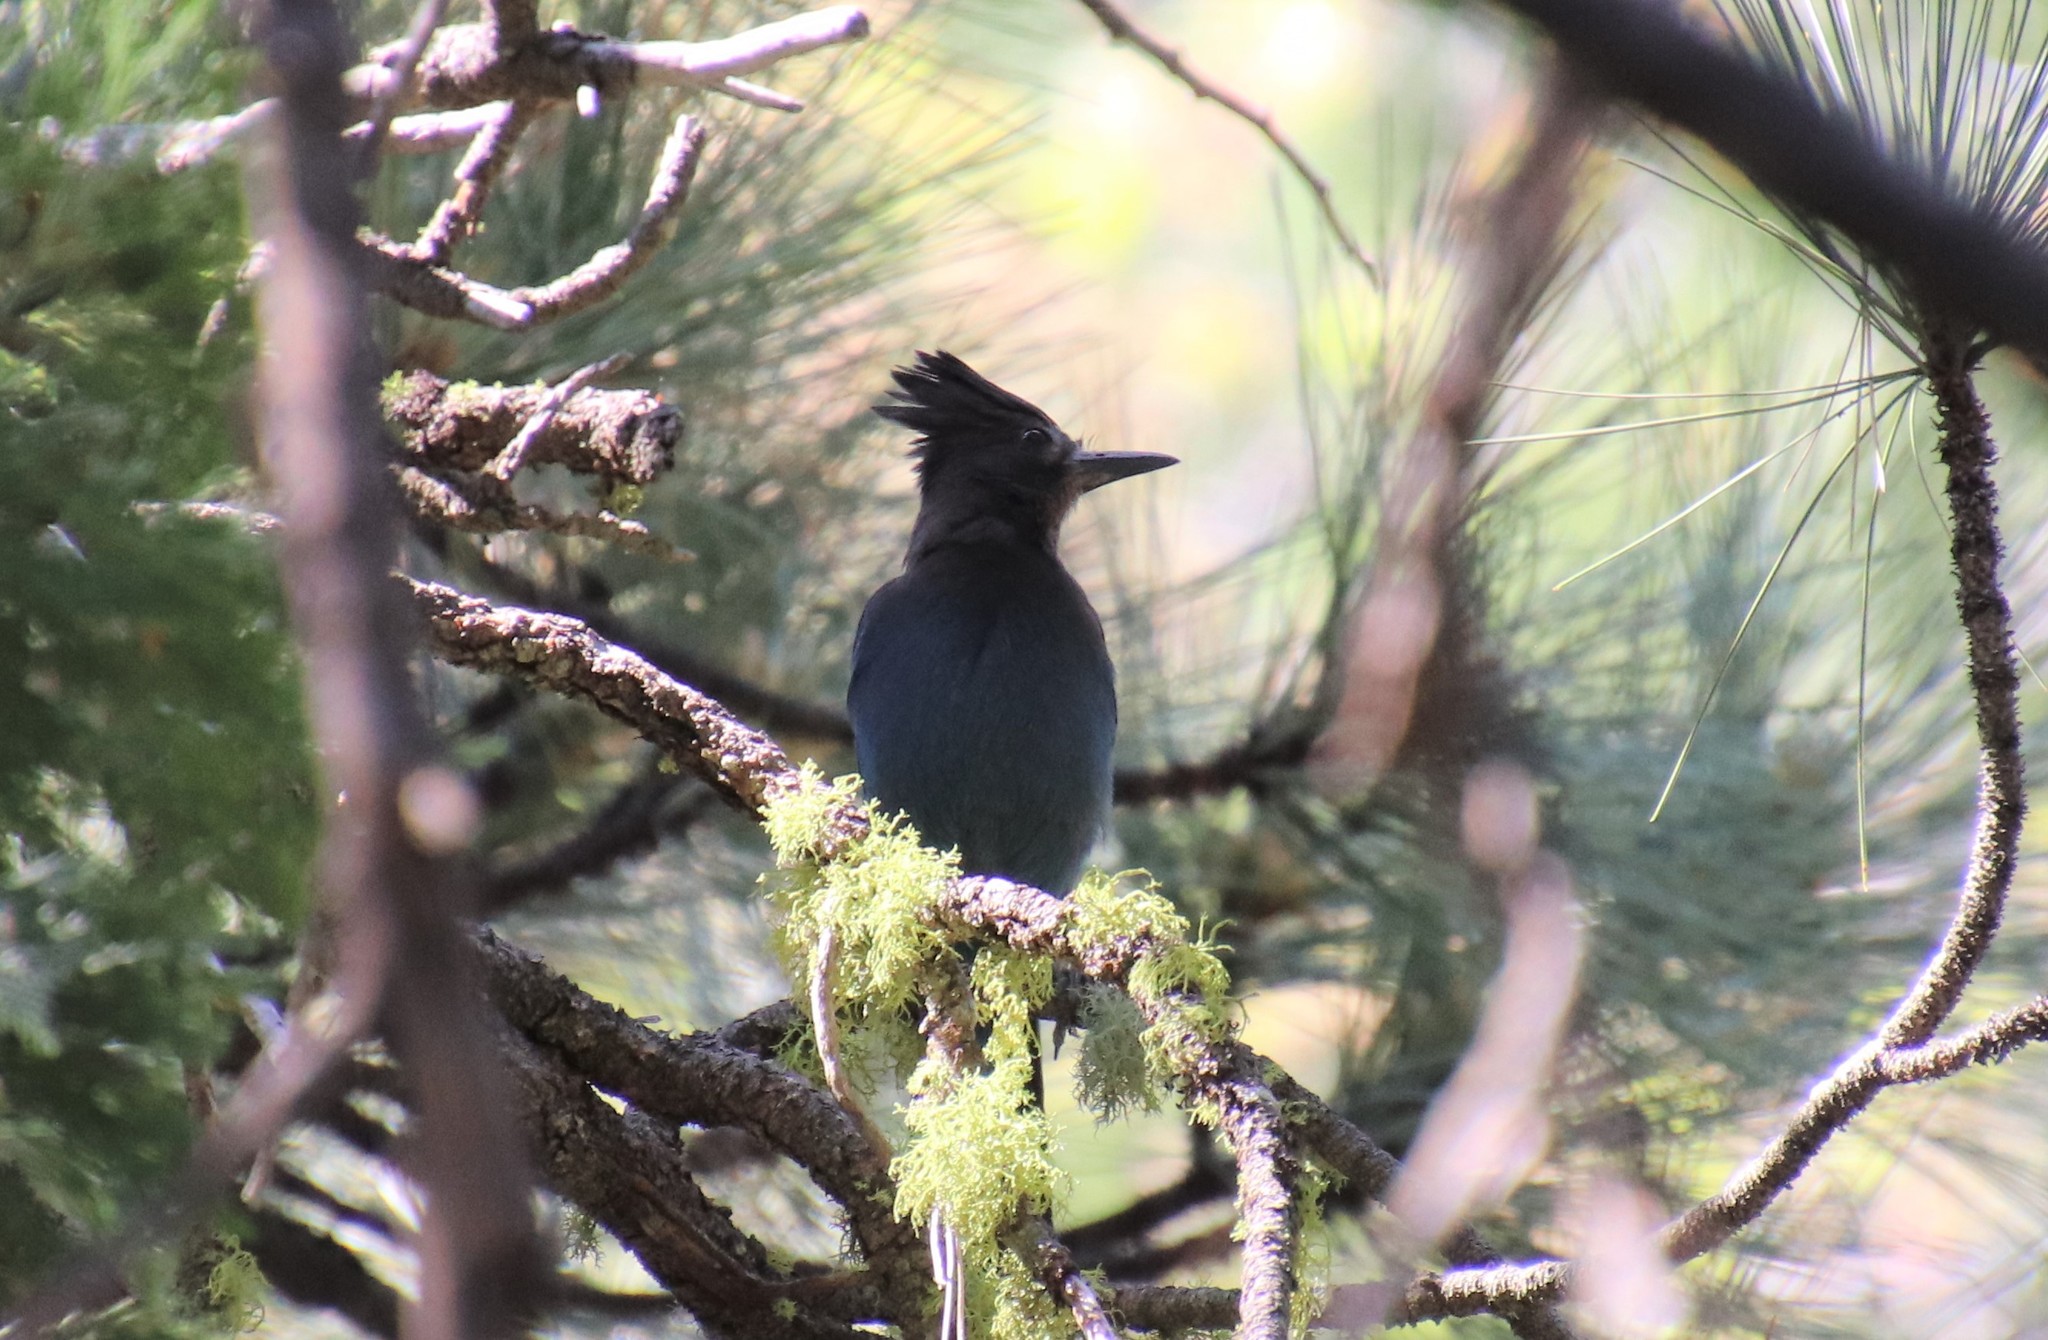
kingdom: Animalia
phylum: Chordata
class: Aves
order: Passeriformes
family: Corvidae
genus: Cyanocitta
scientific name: Cyanocitta stelleri
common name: Steller's jay
